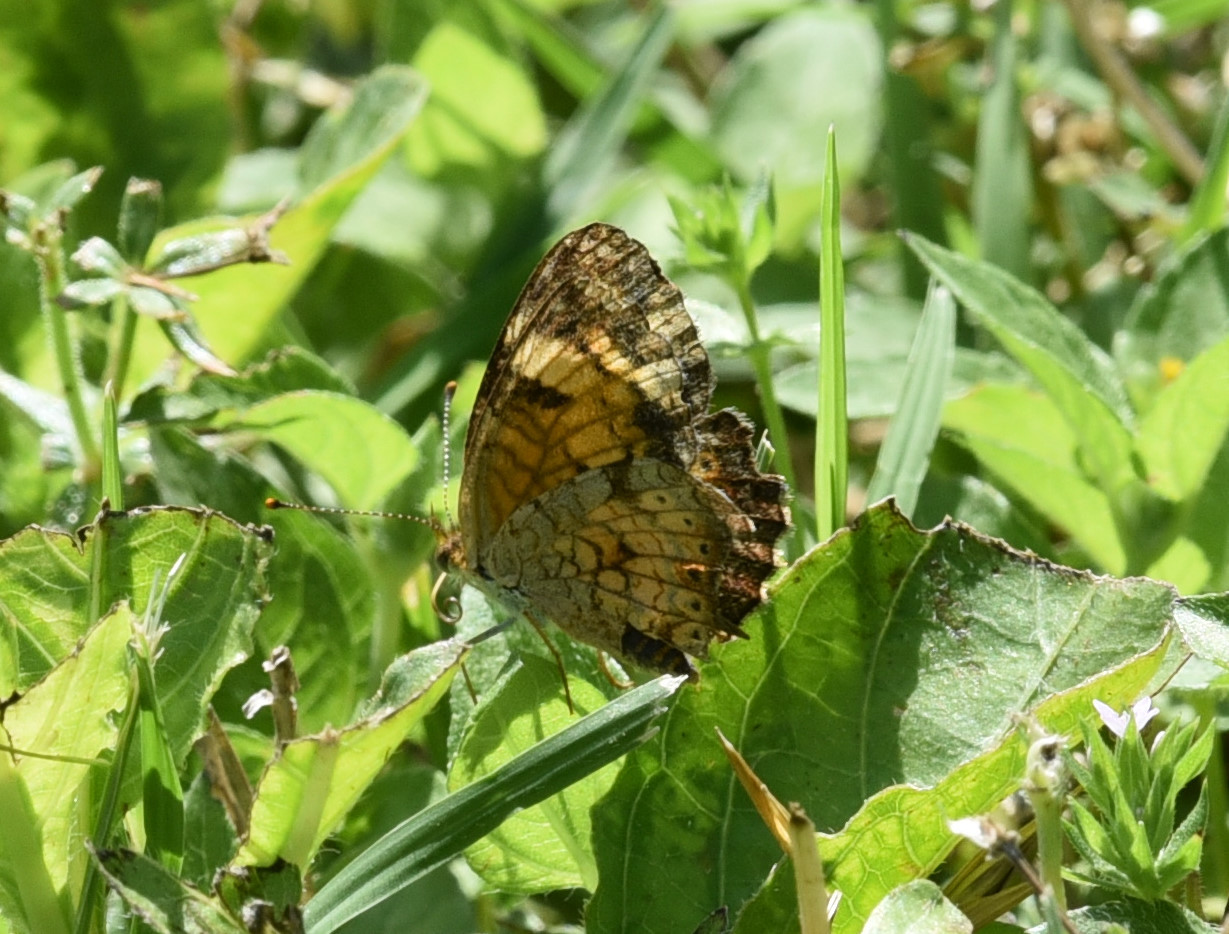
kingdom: Animalia
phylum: Arthropoda
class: Insecta
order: Lepidoptera
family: Nymphalidae
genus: Phyciodes
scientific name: Phyciodes tharos
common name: Pearl crescent
